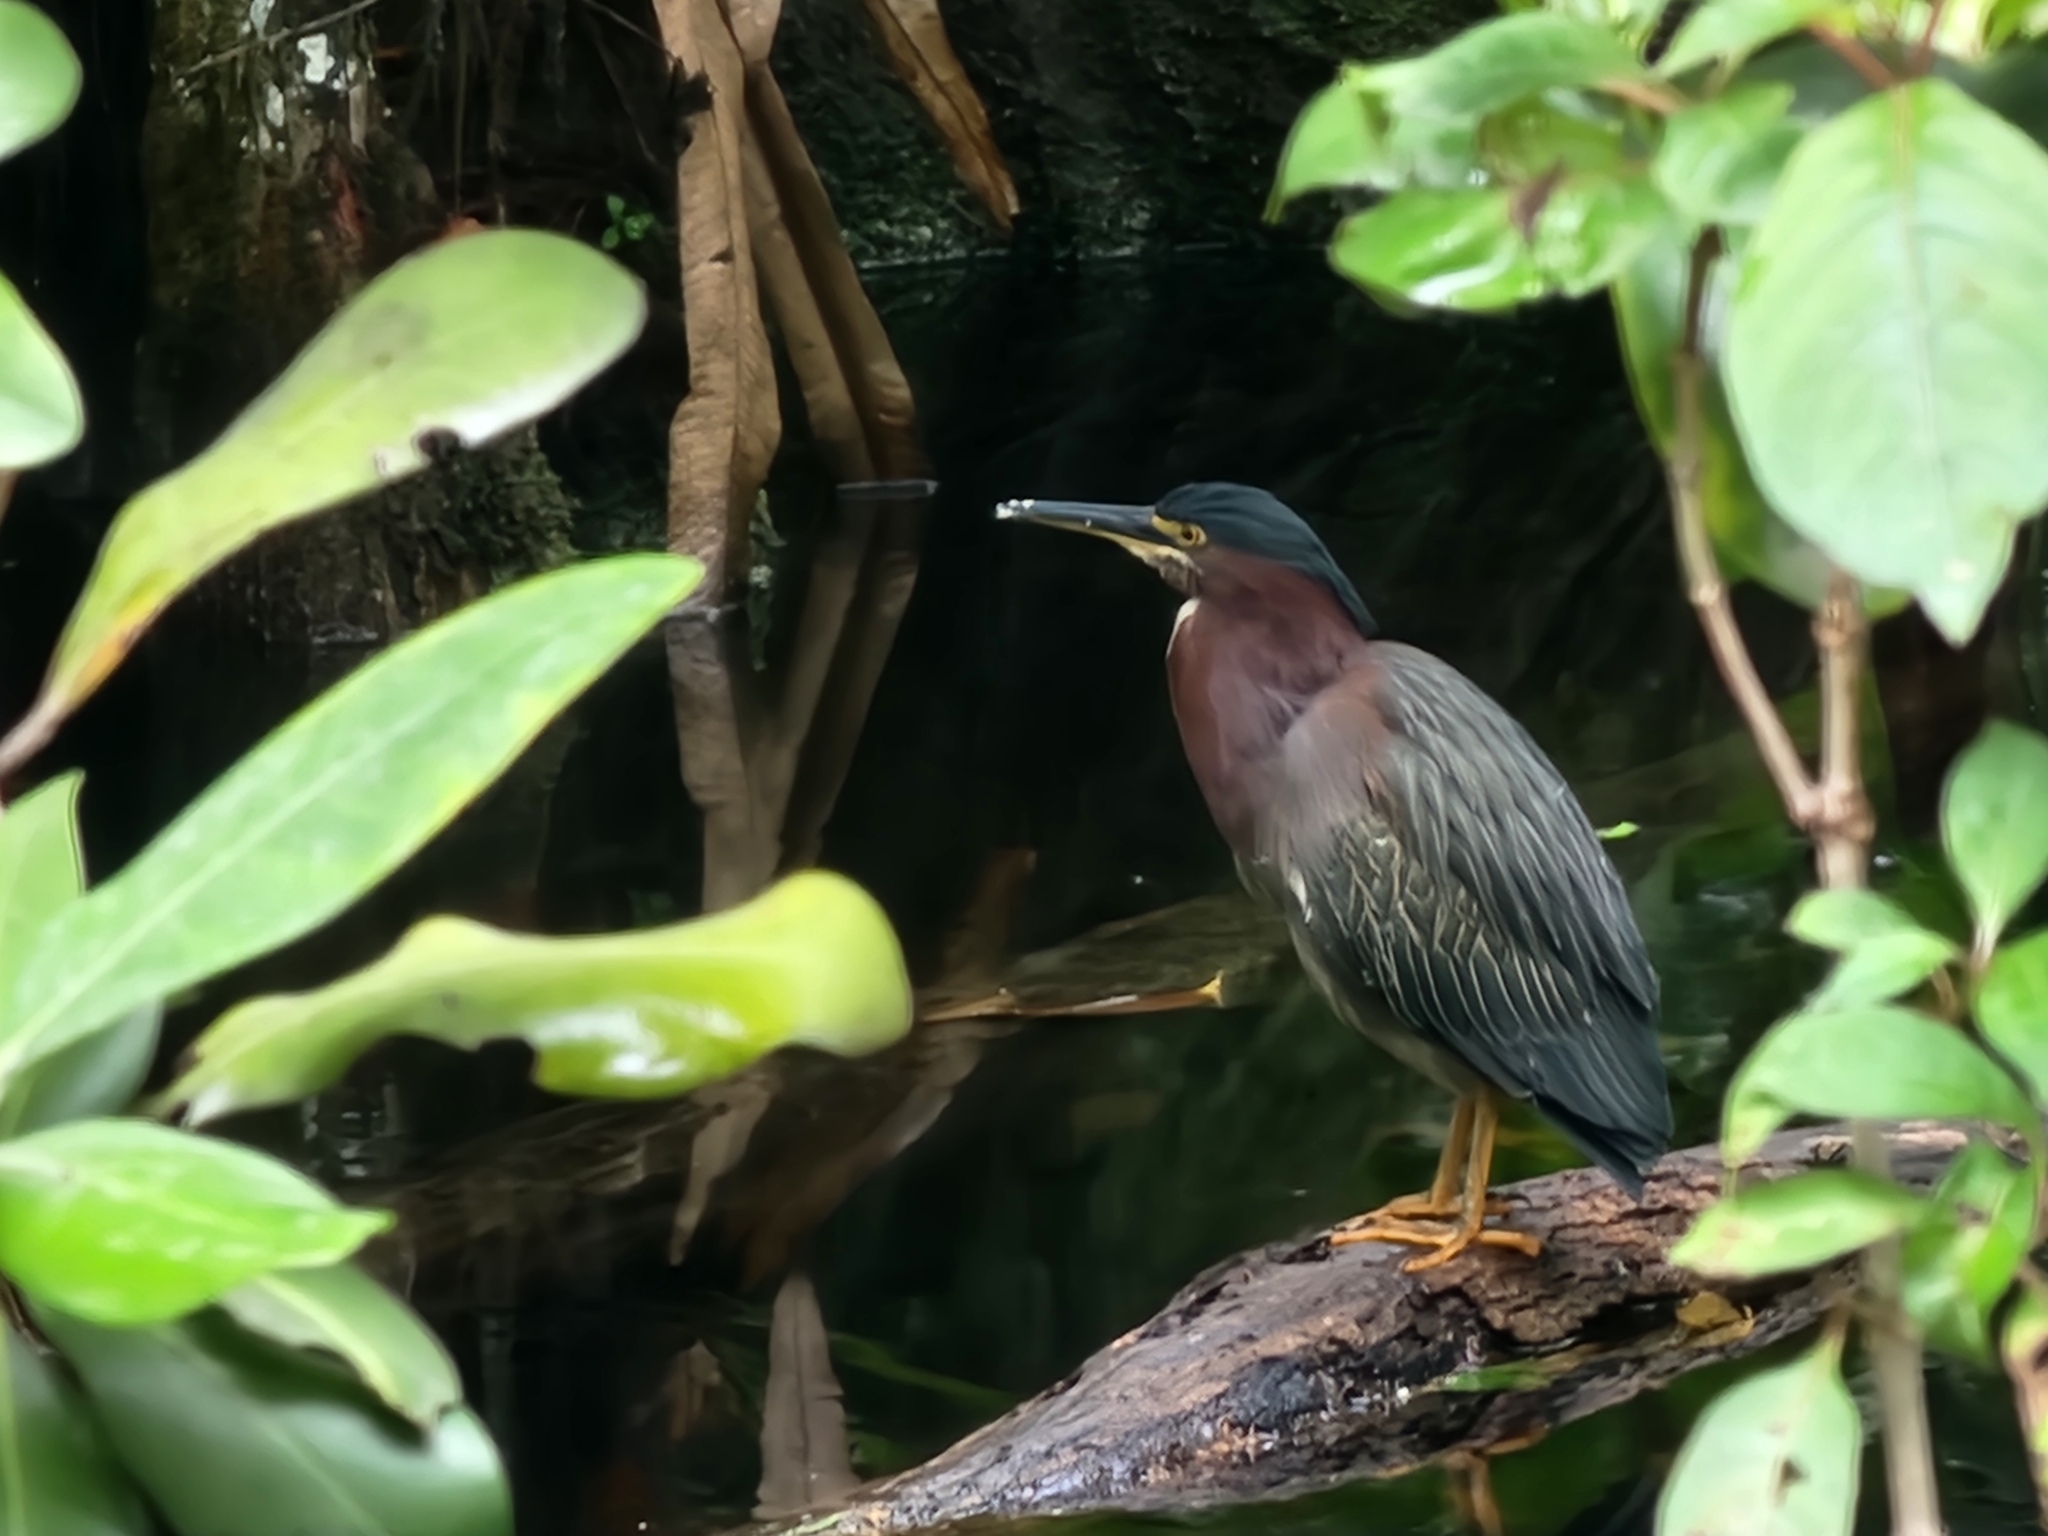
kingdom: Animalia
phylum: Chordata
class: Aves
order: Pelecaniformes
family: Ardeidae
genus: Butorides
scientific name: Butorides virescens
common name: Green heron
